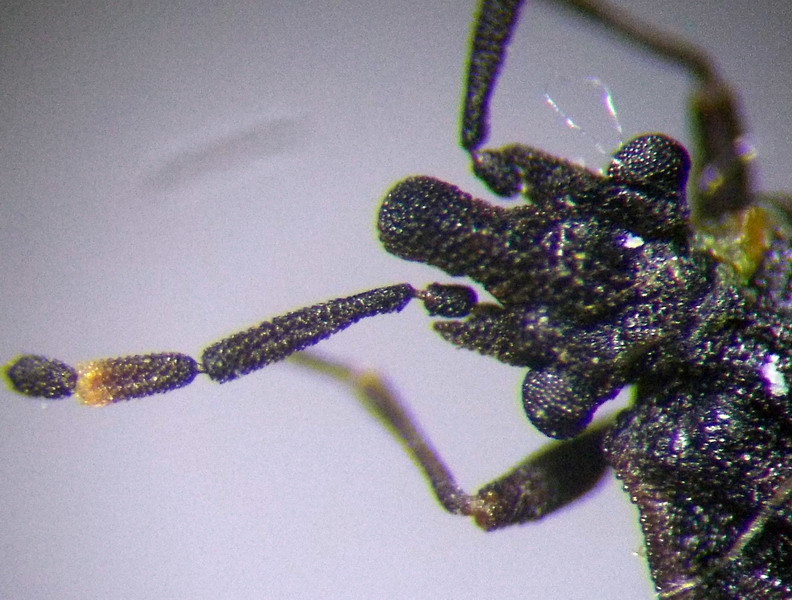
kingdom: Animalia
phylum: Arthropoda
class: Insecta
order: Hemiptera
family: Aradidae
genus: Aradus
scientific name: Aradus lugubris
